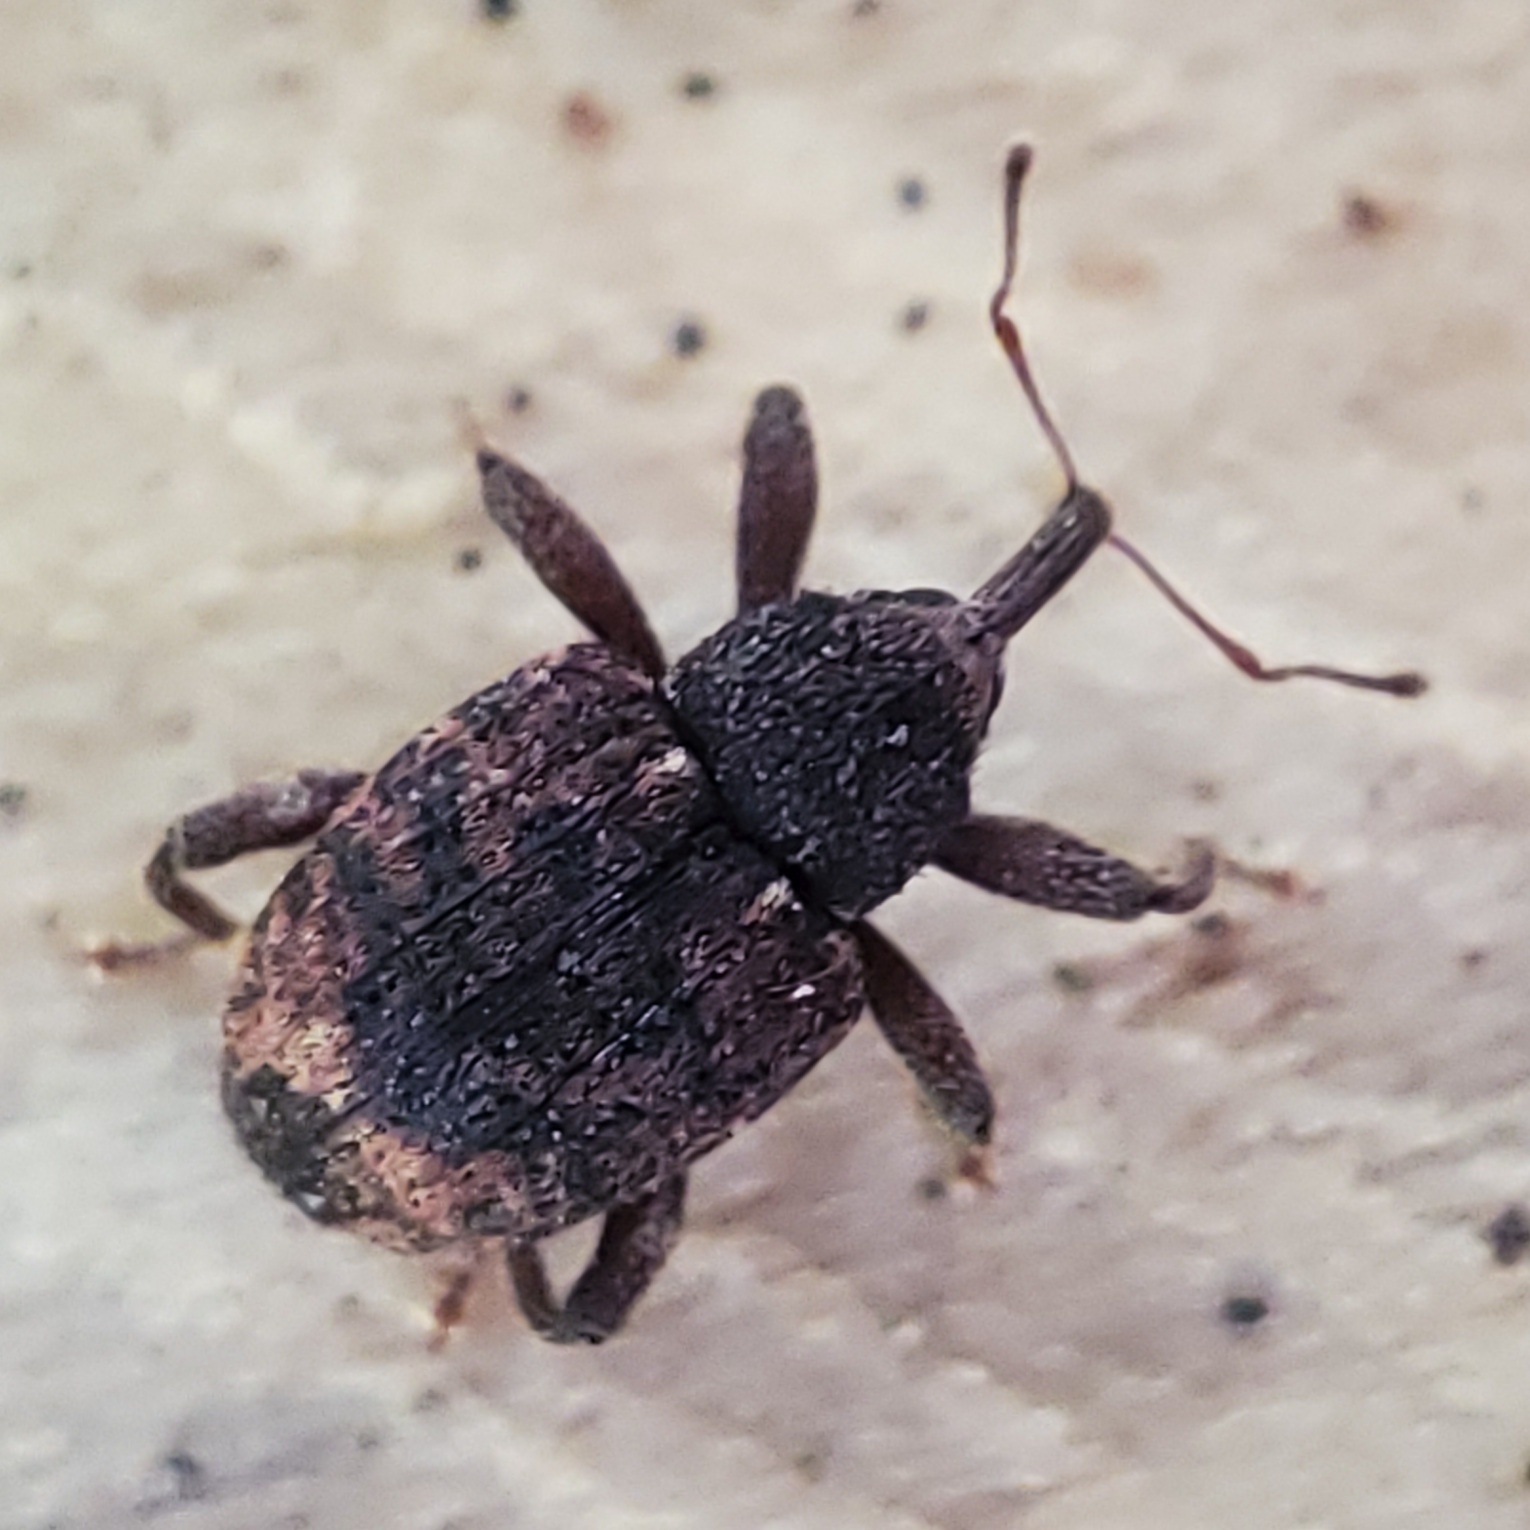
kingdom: Animalia
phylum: Arthropoda
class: Insecta
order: Coleoptera
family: Curculionidae
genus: Conotrachelus
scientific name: Conotrachelus posticatus
